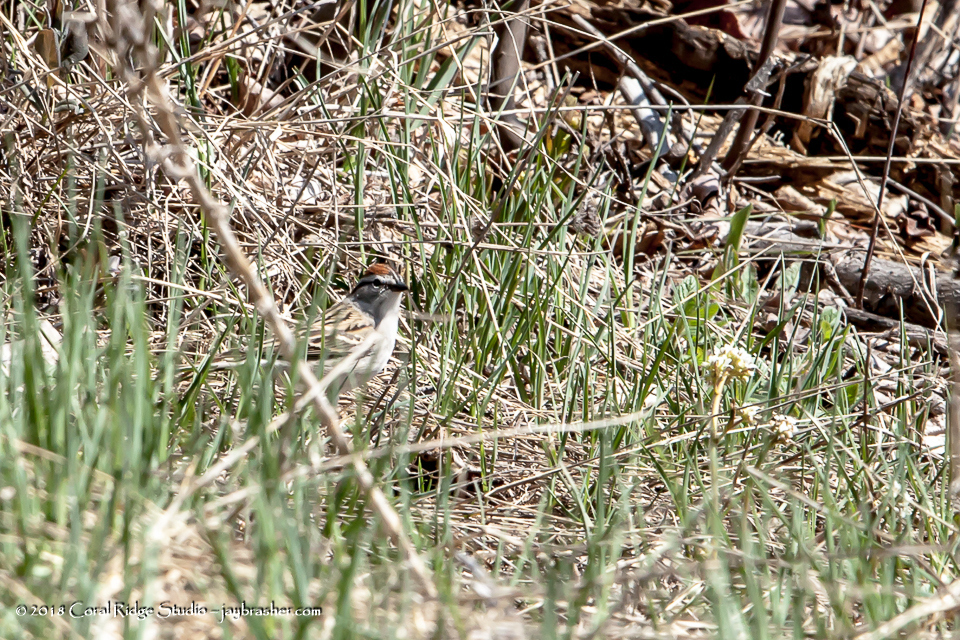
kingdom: Animalia
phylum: Chordata
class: Aves
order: Passeriformes
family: Passerellidae
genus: Spizella
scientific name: Spizella passerina
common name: Chipping sparrow
